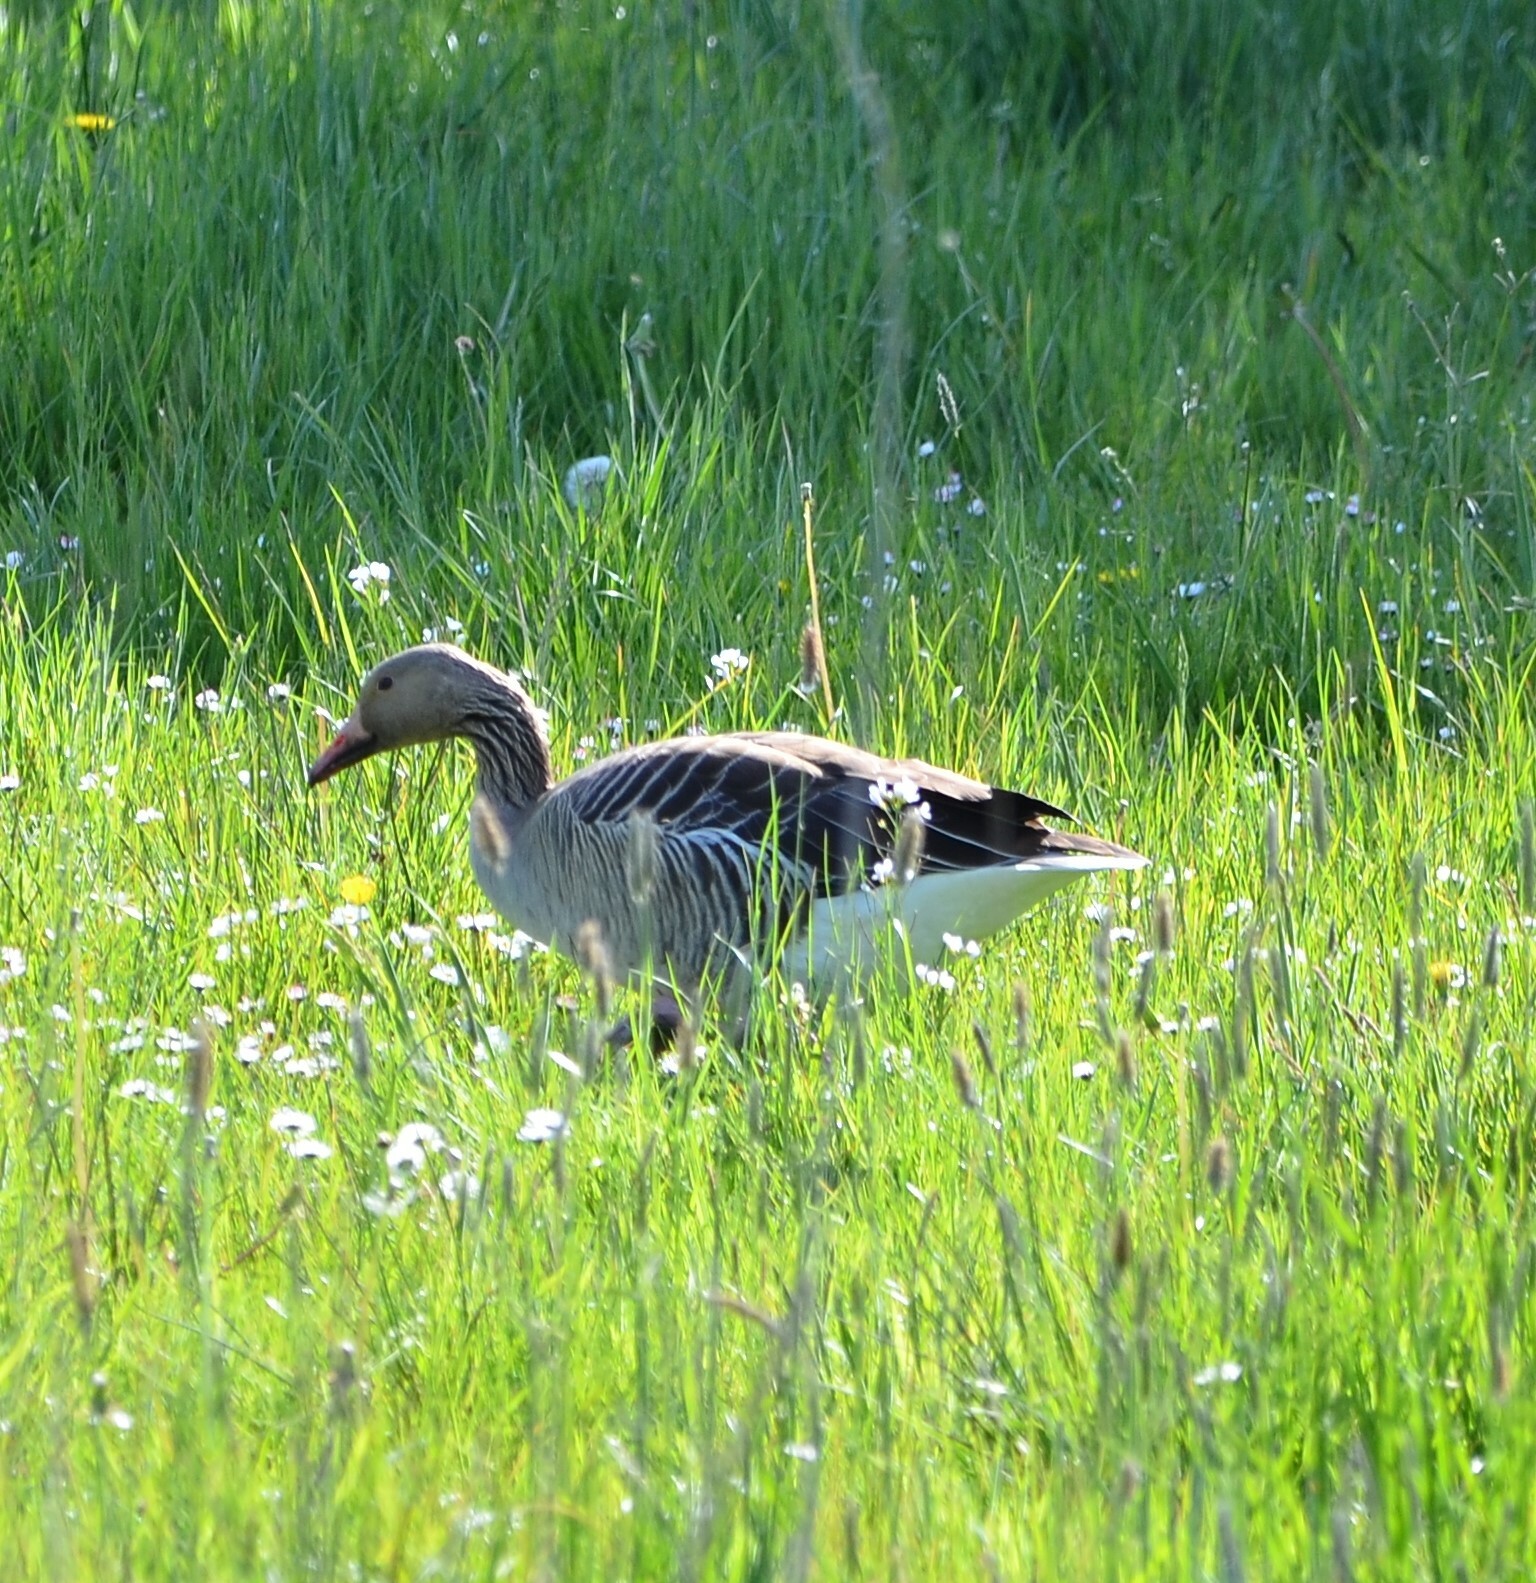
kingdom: Animalia
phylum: Chordata
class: Aves
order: Anseriformes
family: Anatidae
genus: Anser
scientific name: Anser anser
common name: Greylag goose
